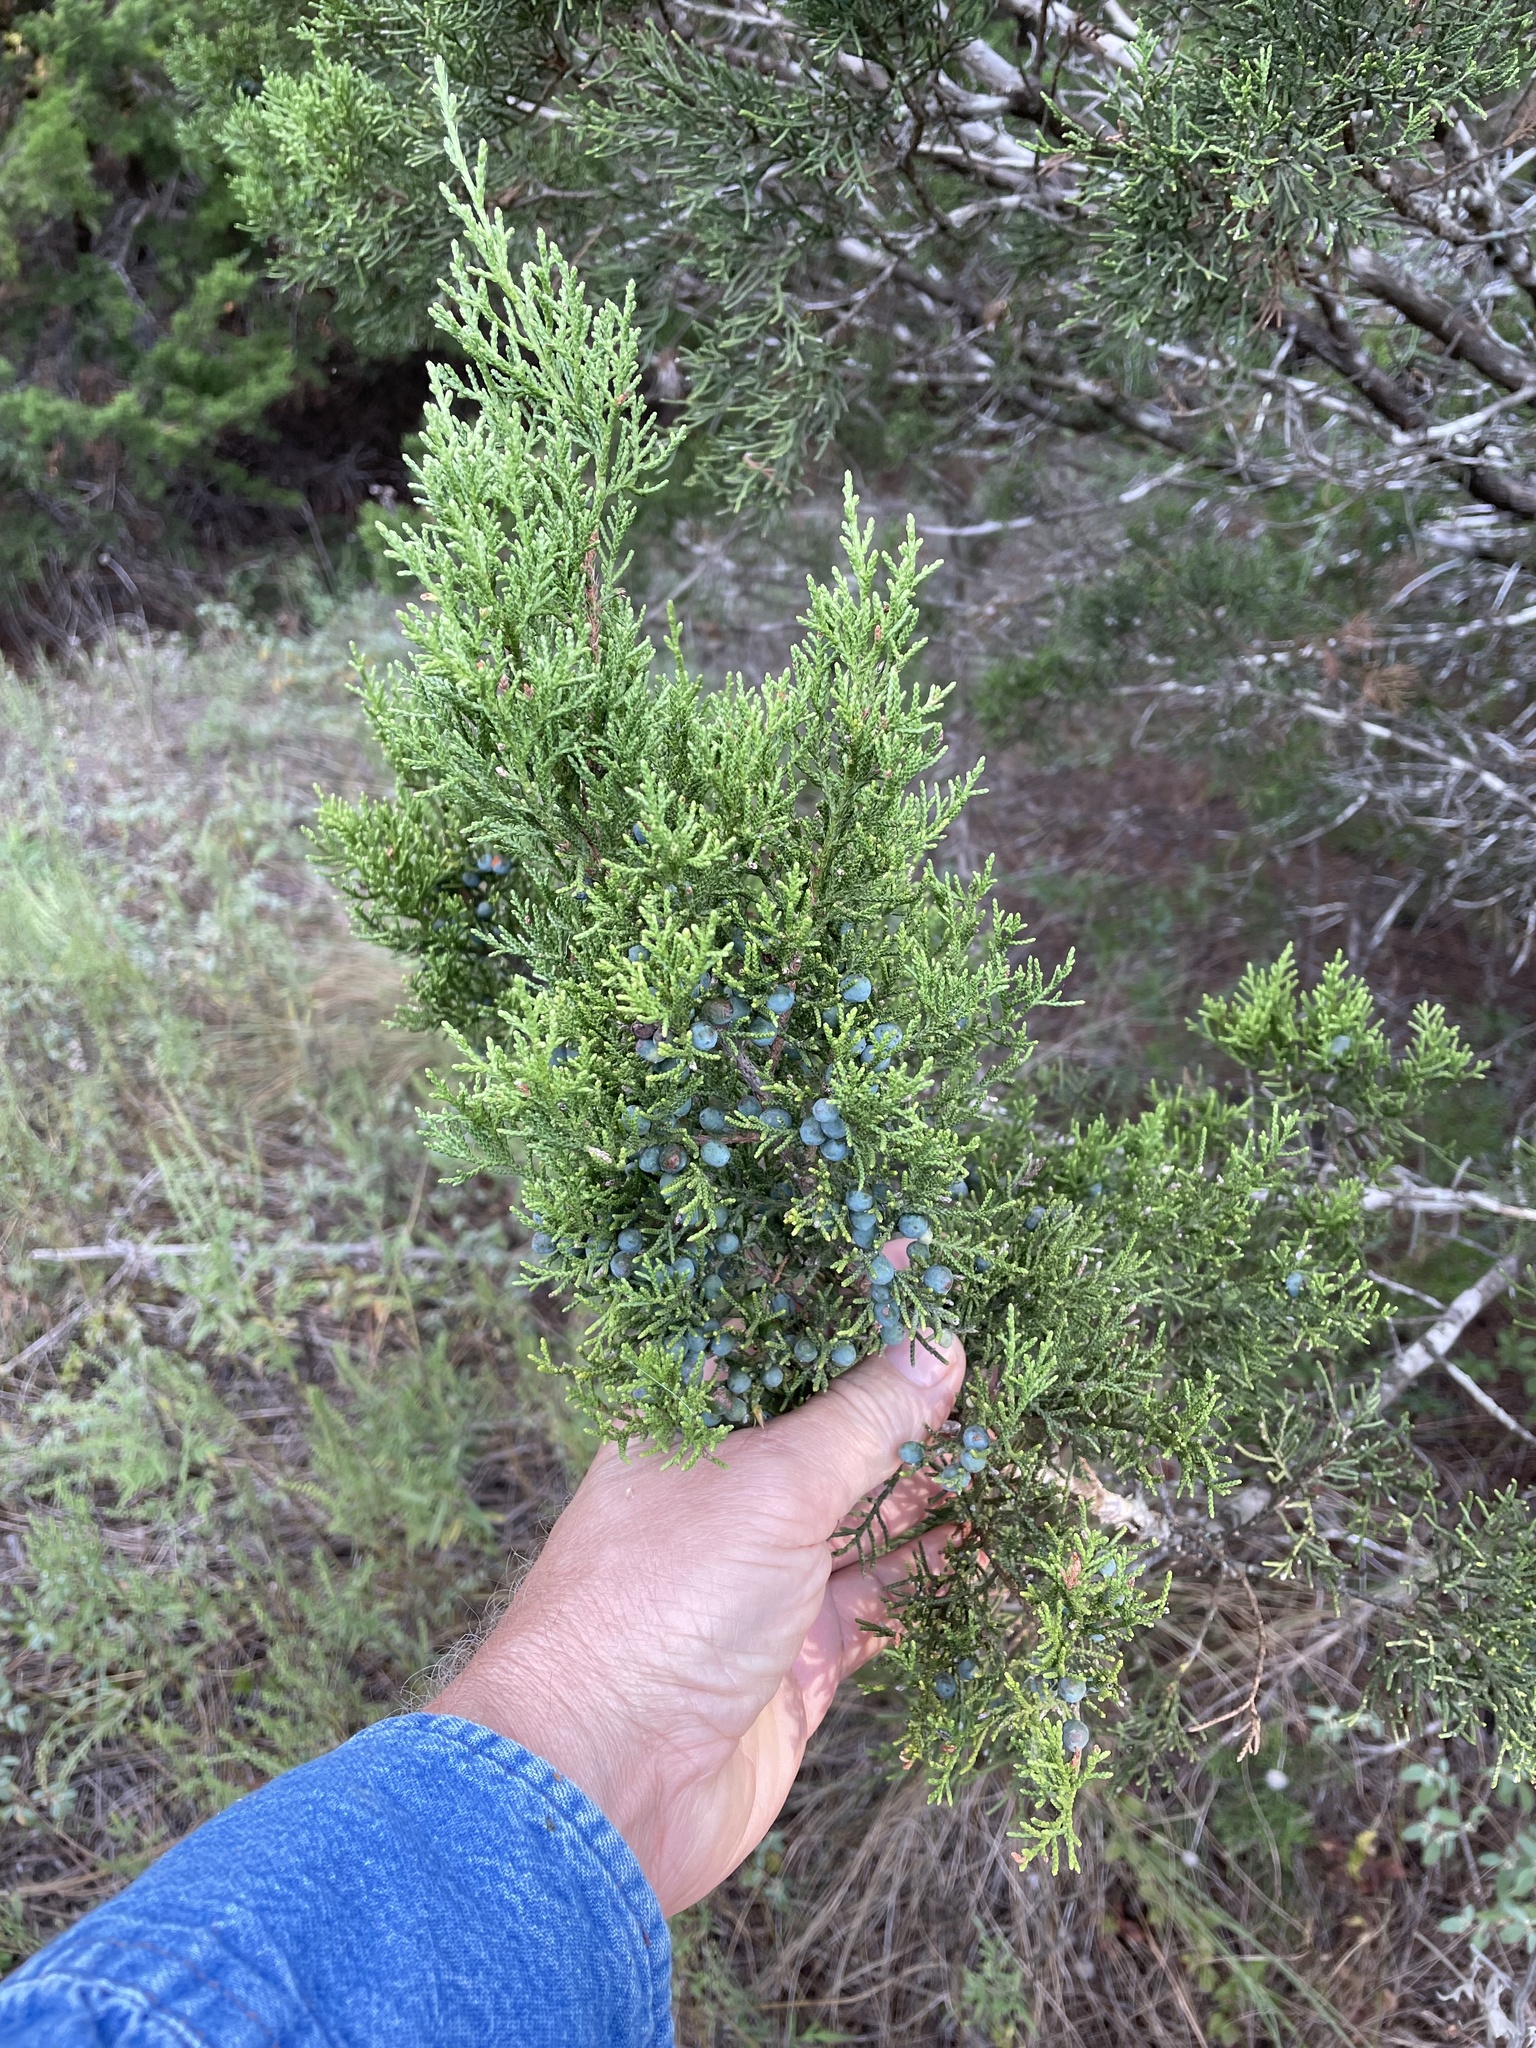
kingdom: Plantae
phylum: Tracheophyta
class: Pinopsida
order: Pinales
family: Cupressaceae
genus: Juniperus
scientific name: Juniperus ashei
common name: Mexican juniper
